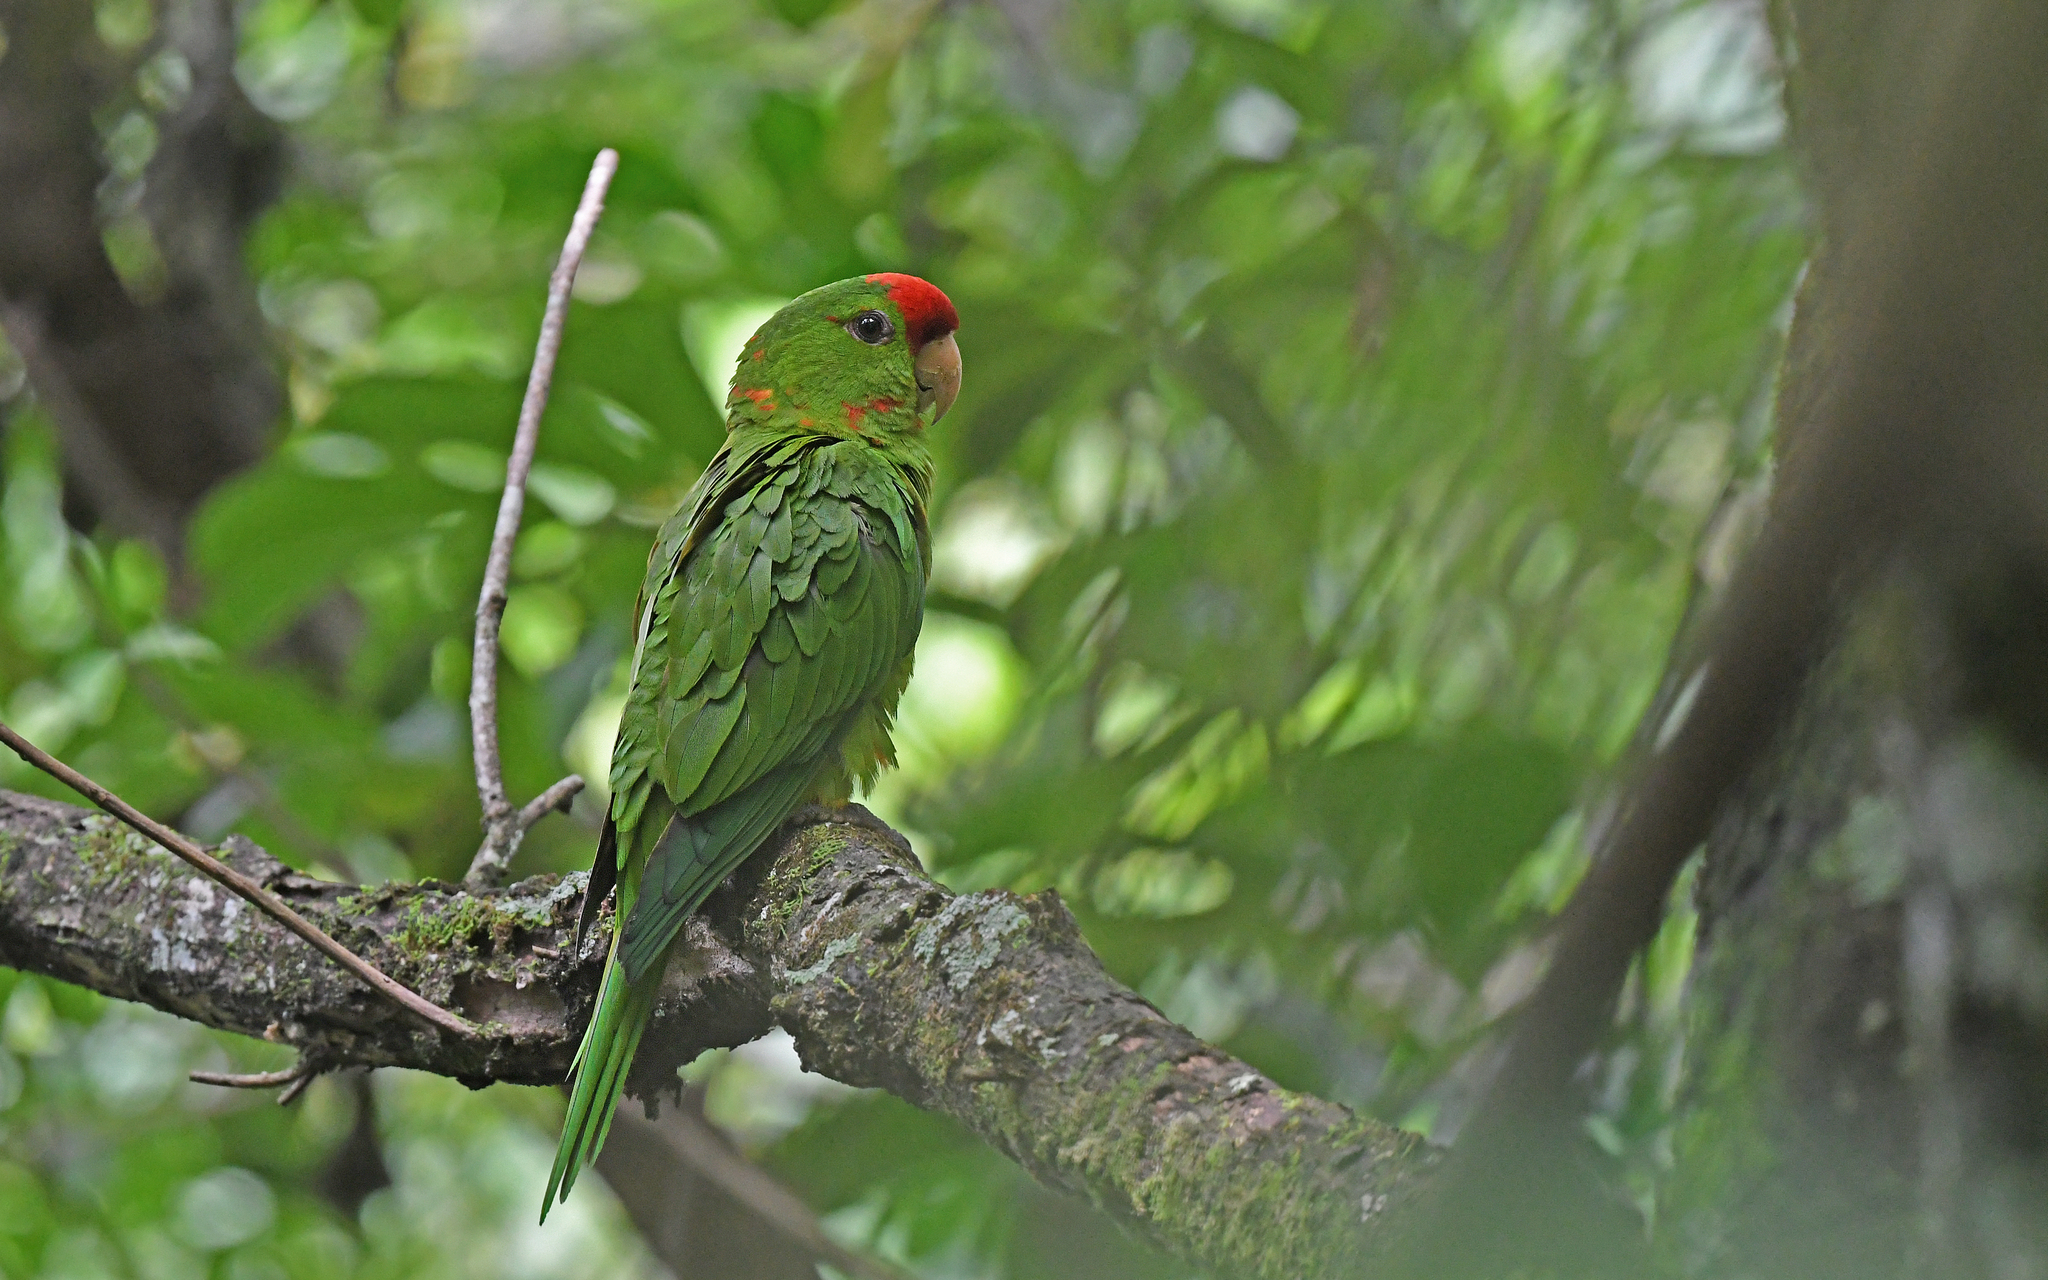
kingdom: Animalia
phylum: Chordata
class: Aves
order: Psittaciformes
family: Psittacidae
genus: Aratinga
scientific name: Aratinga wagleri
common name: Scarlet-fronted parakeet
